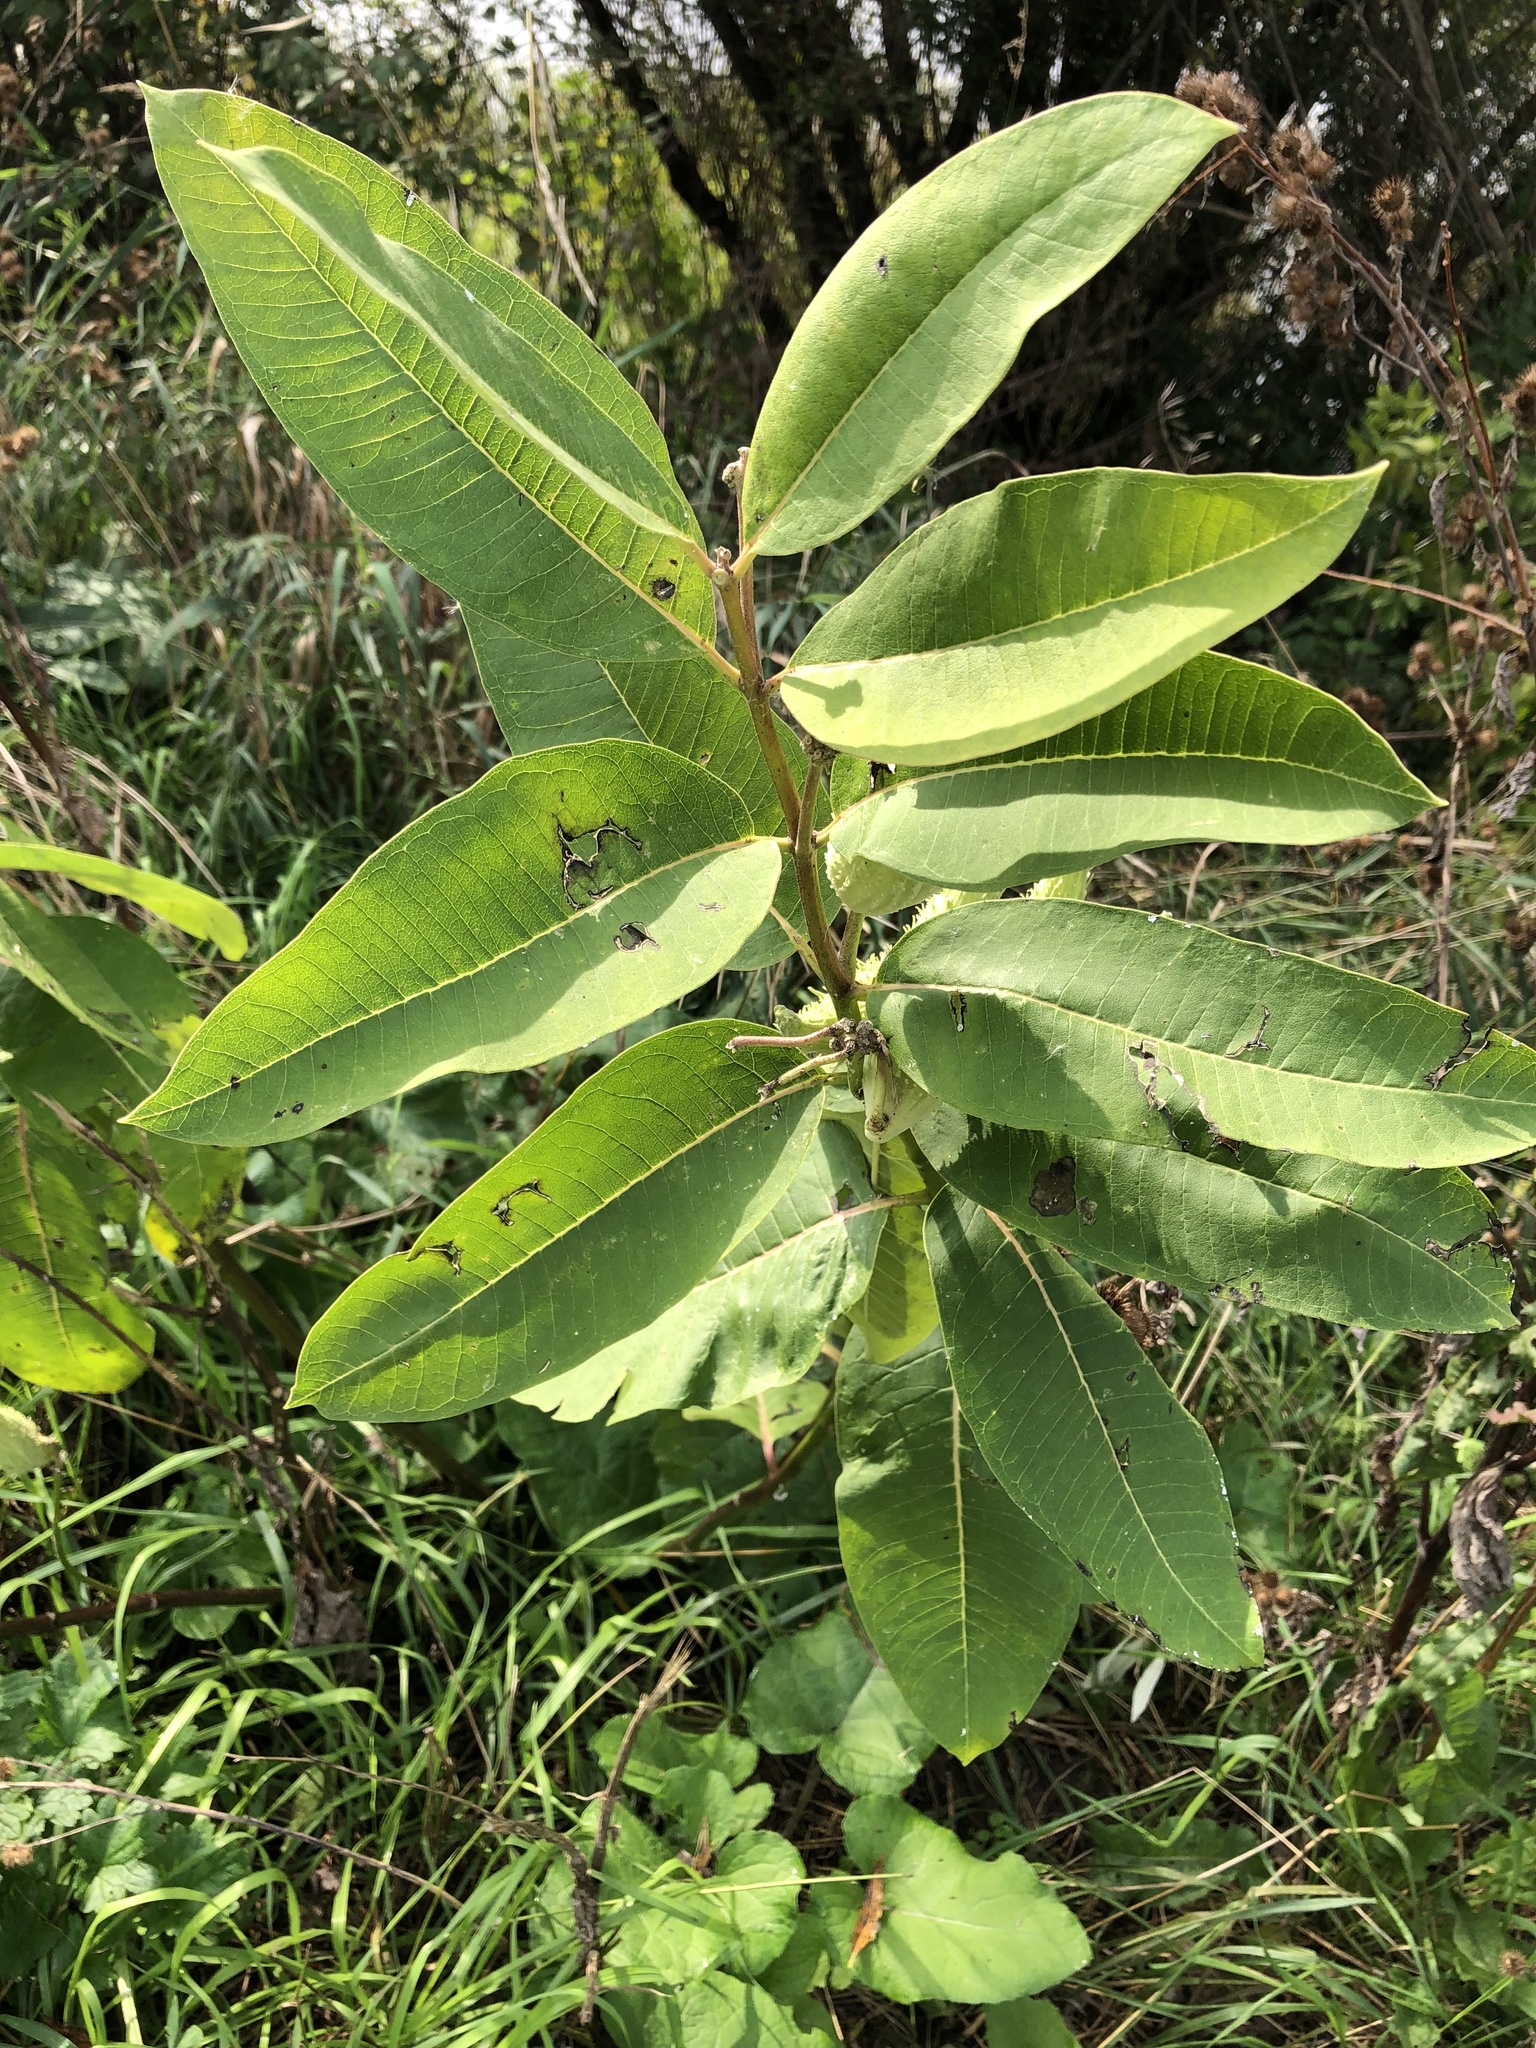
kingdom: Plantae
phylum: Tracheophyta
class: Magnoliopsida
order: Gentianales
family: Apocynaceae
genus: Asclepias
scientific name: Asclepias syriaca
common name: Common milkweed
